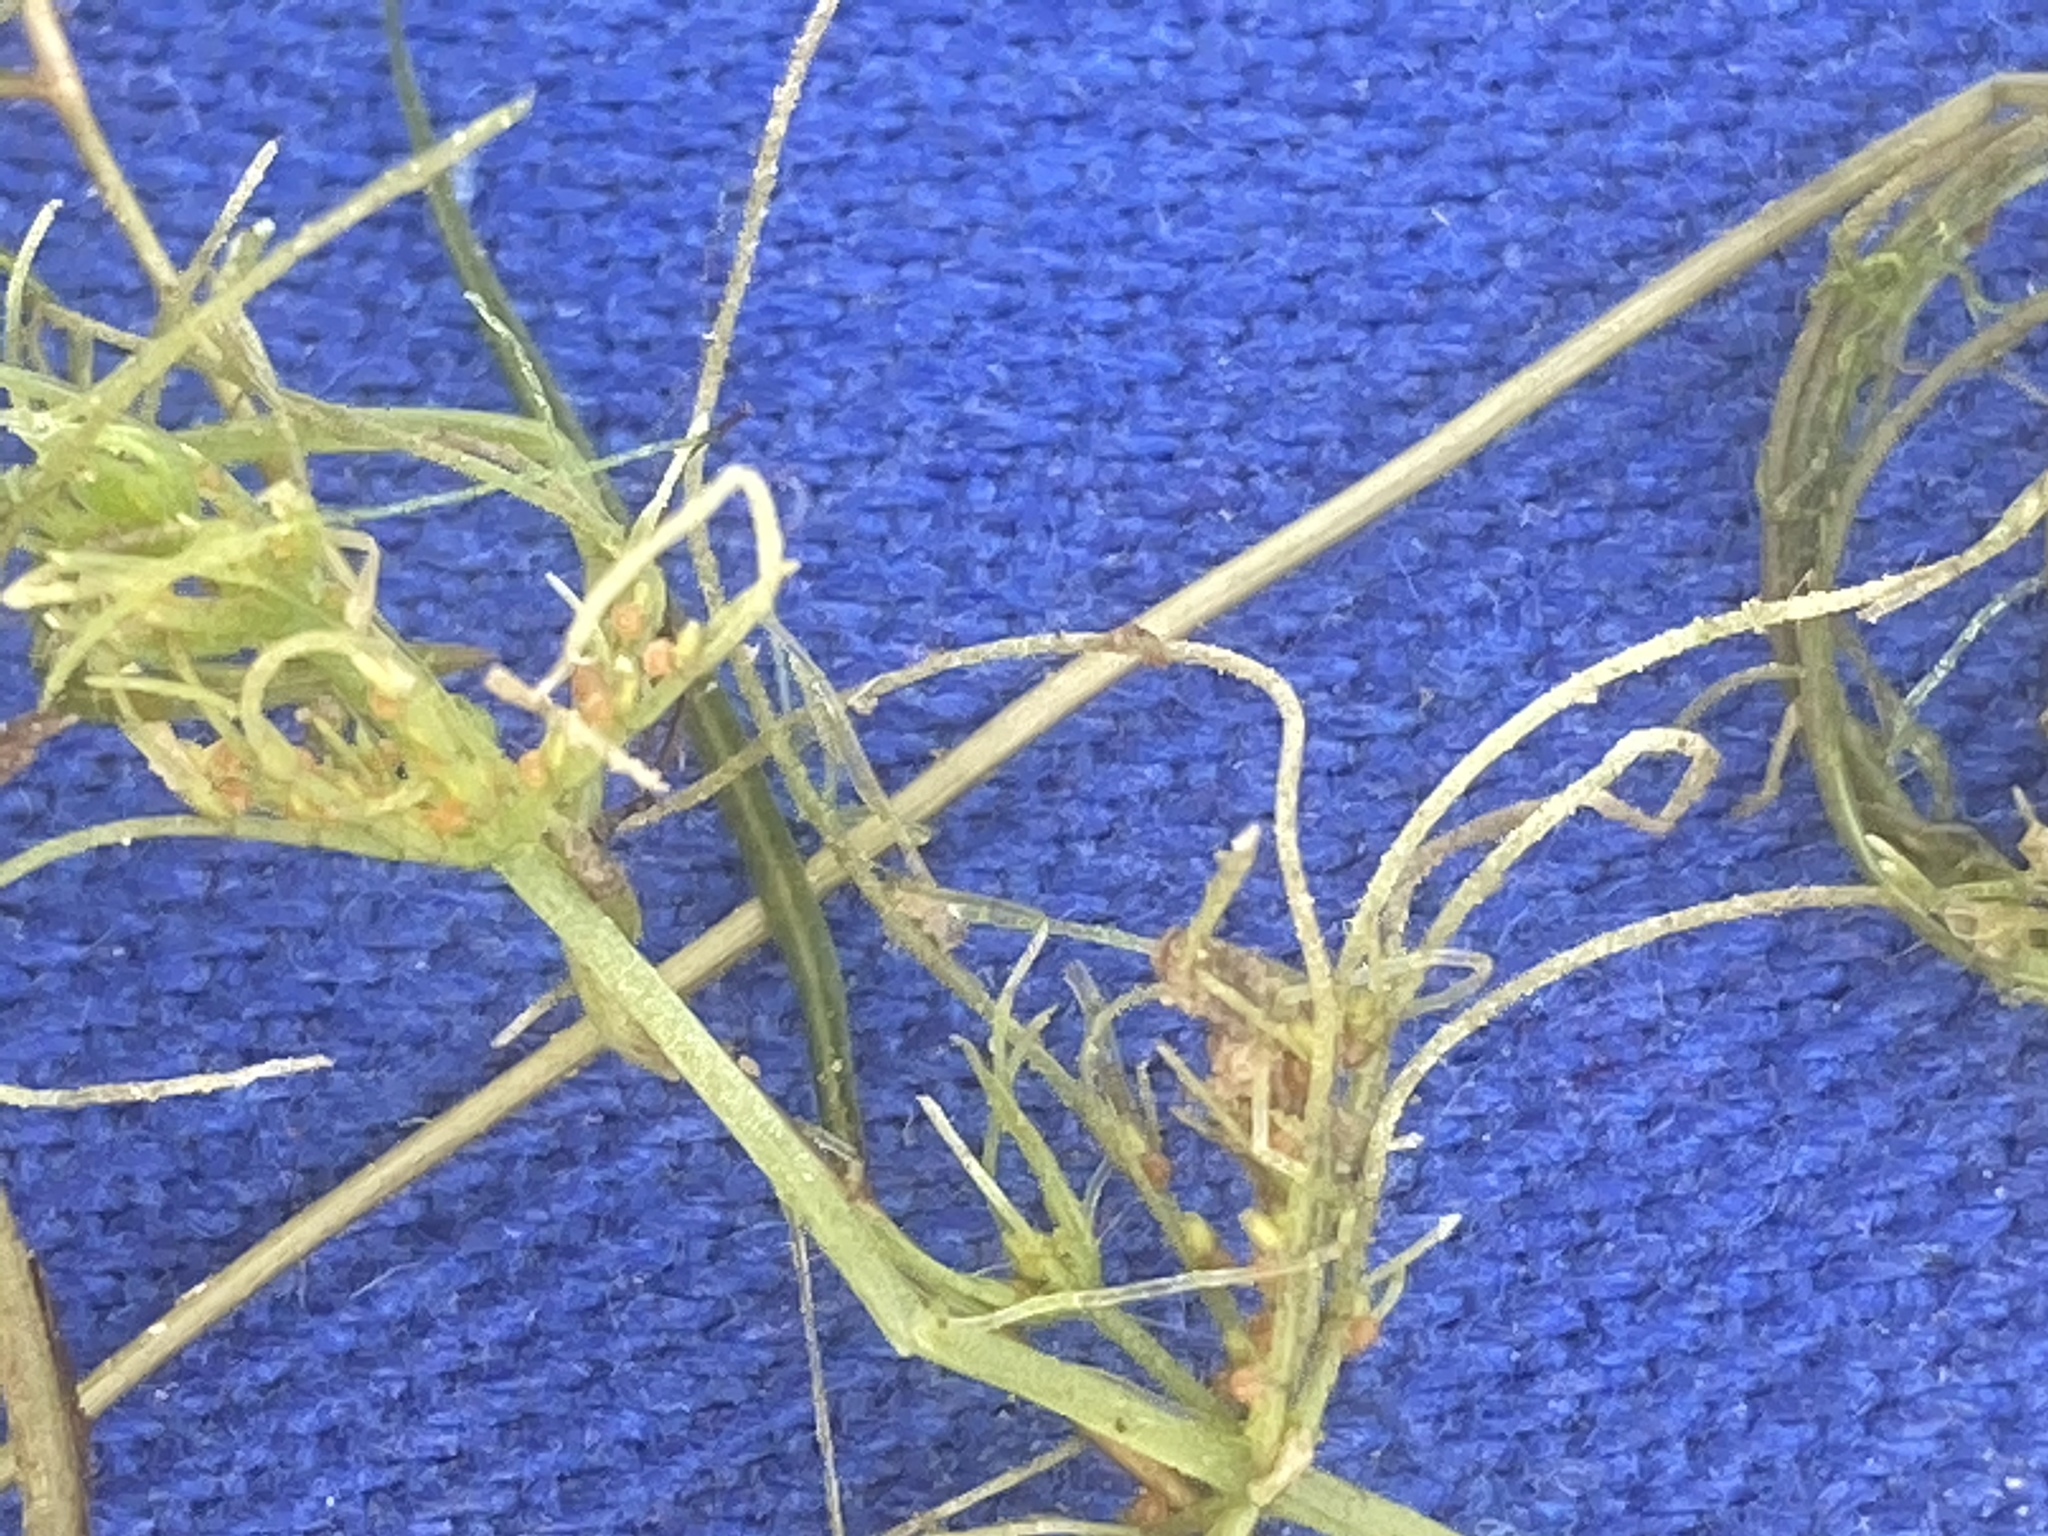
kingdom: Plantae
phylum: Charophyta
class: Charophyceae
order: Charales
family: Characeae
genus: Chara
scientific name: Chara vulgaris
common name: Common stonewort
